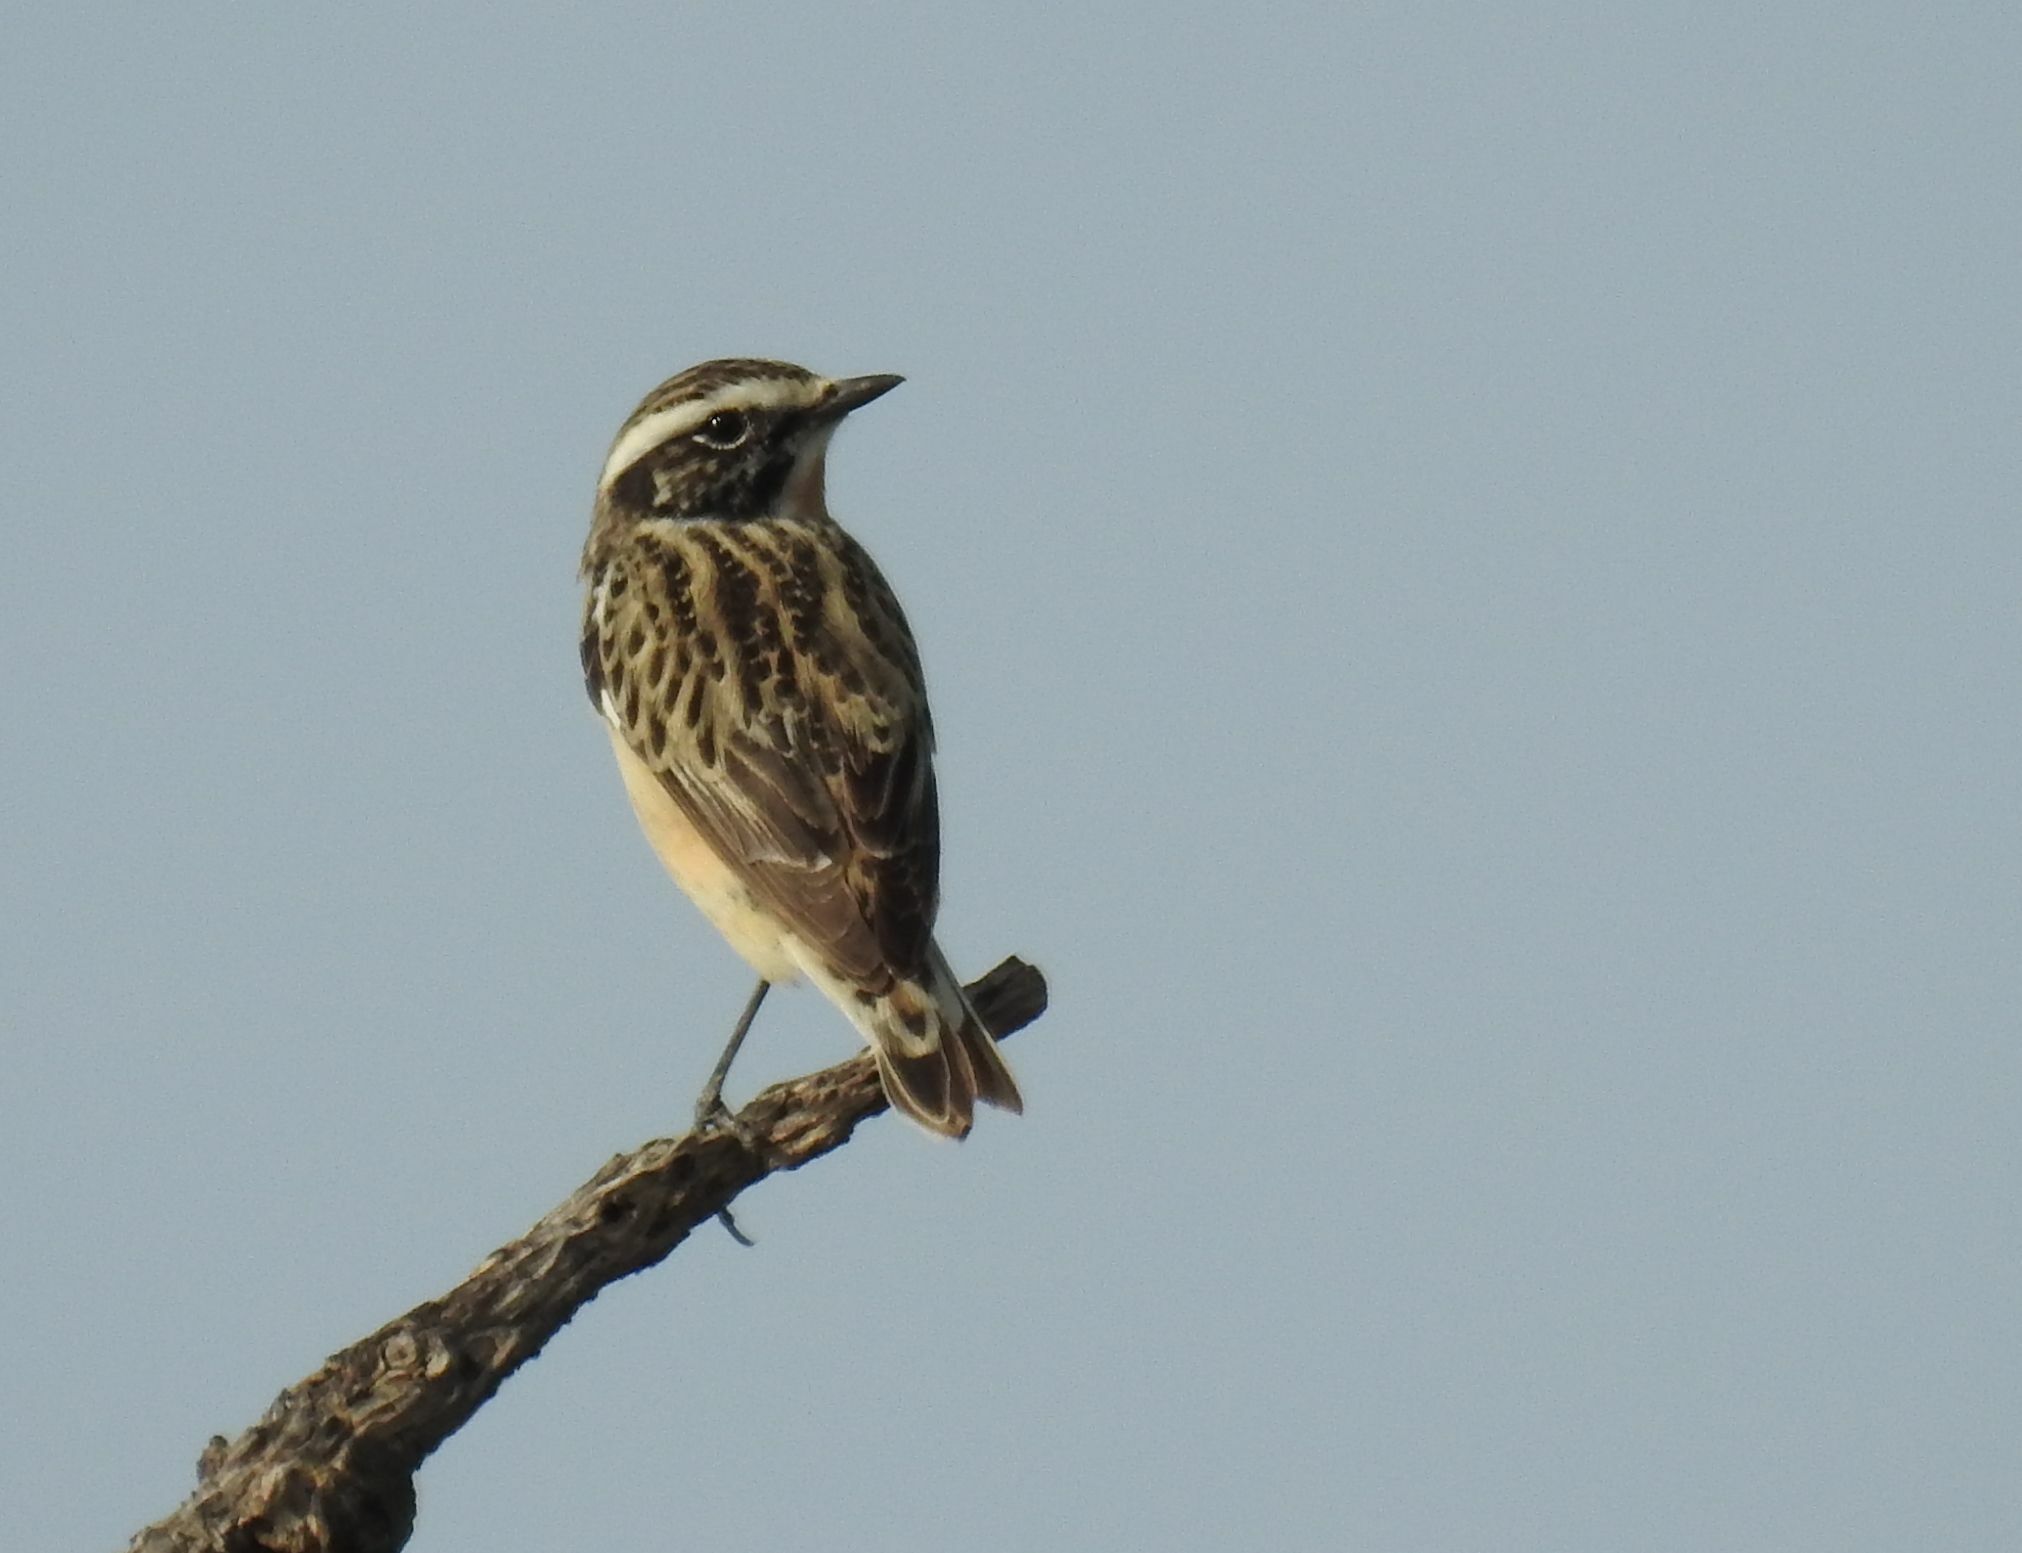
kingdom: Animalia
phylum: Chordata
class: Aves
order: Passeriformes
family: Muscicapidae
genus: Saxicola
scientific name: Saxicola rubetra
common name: Whinchat
